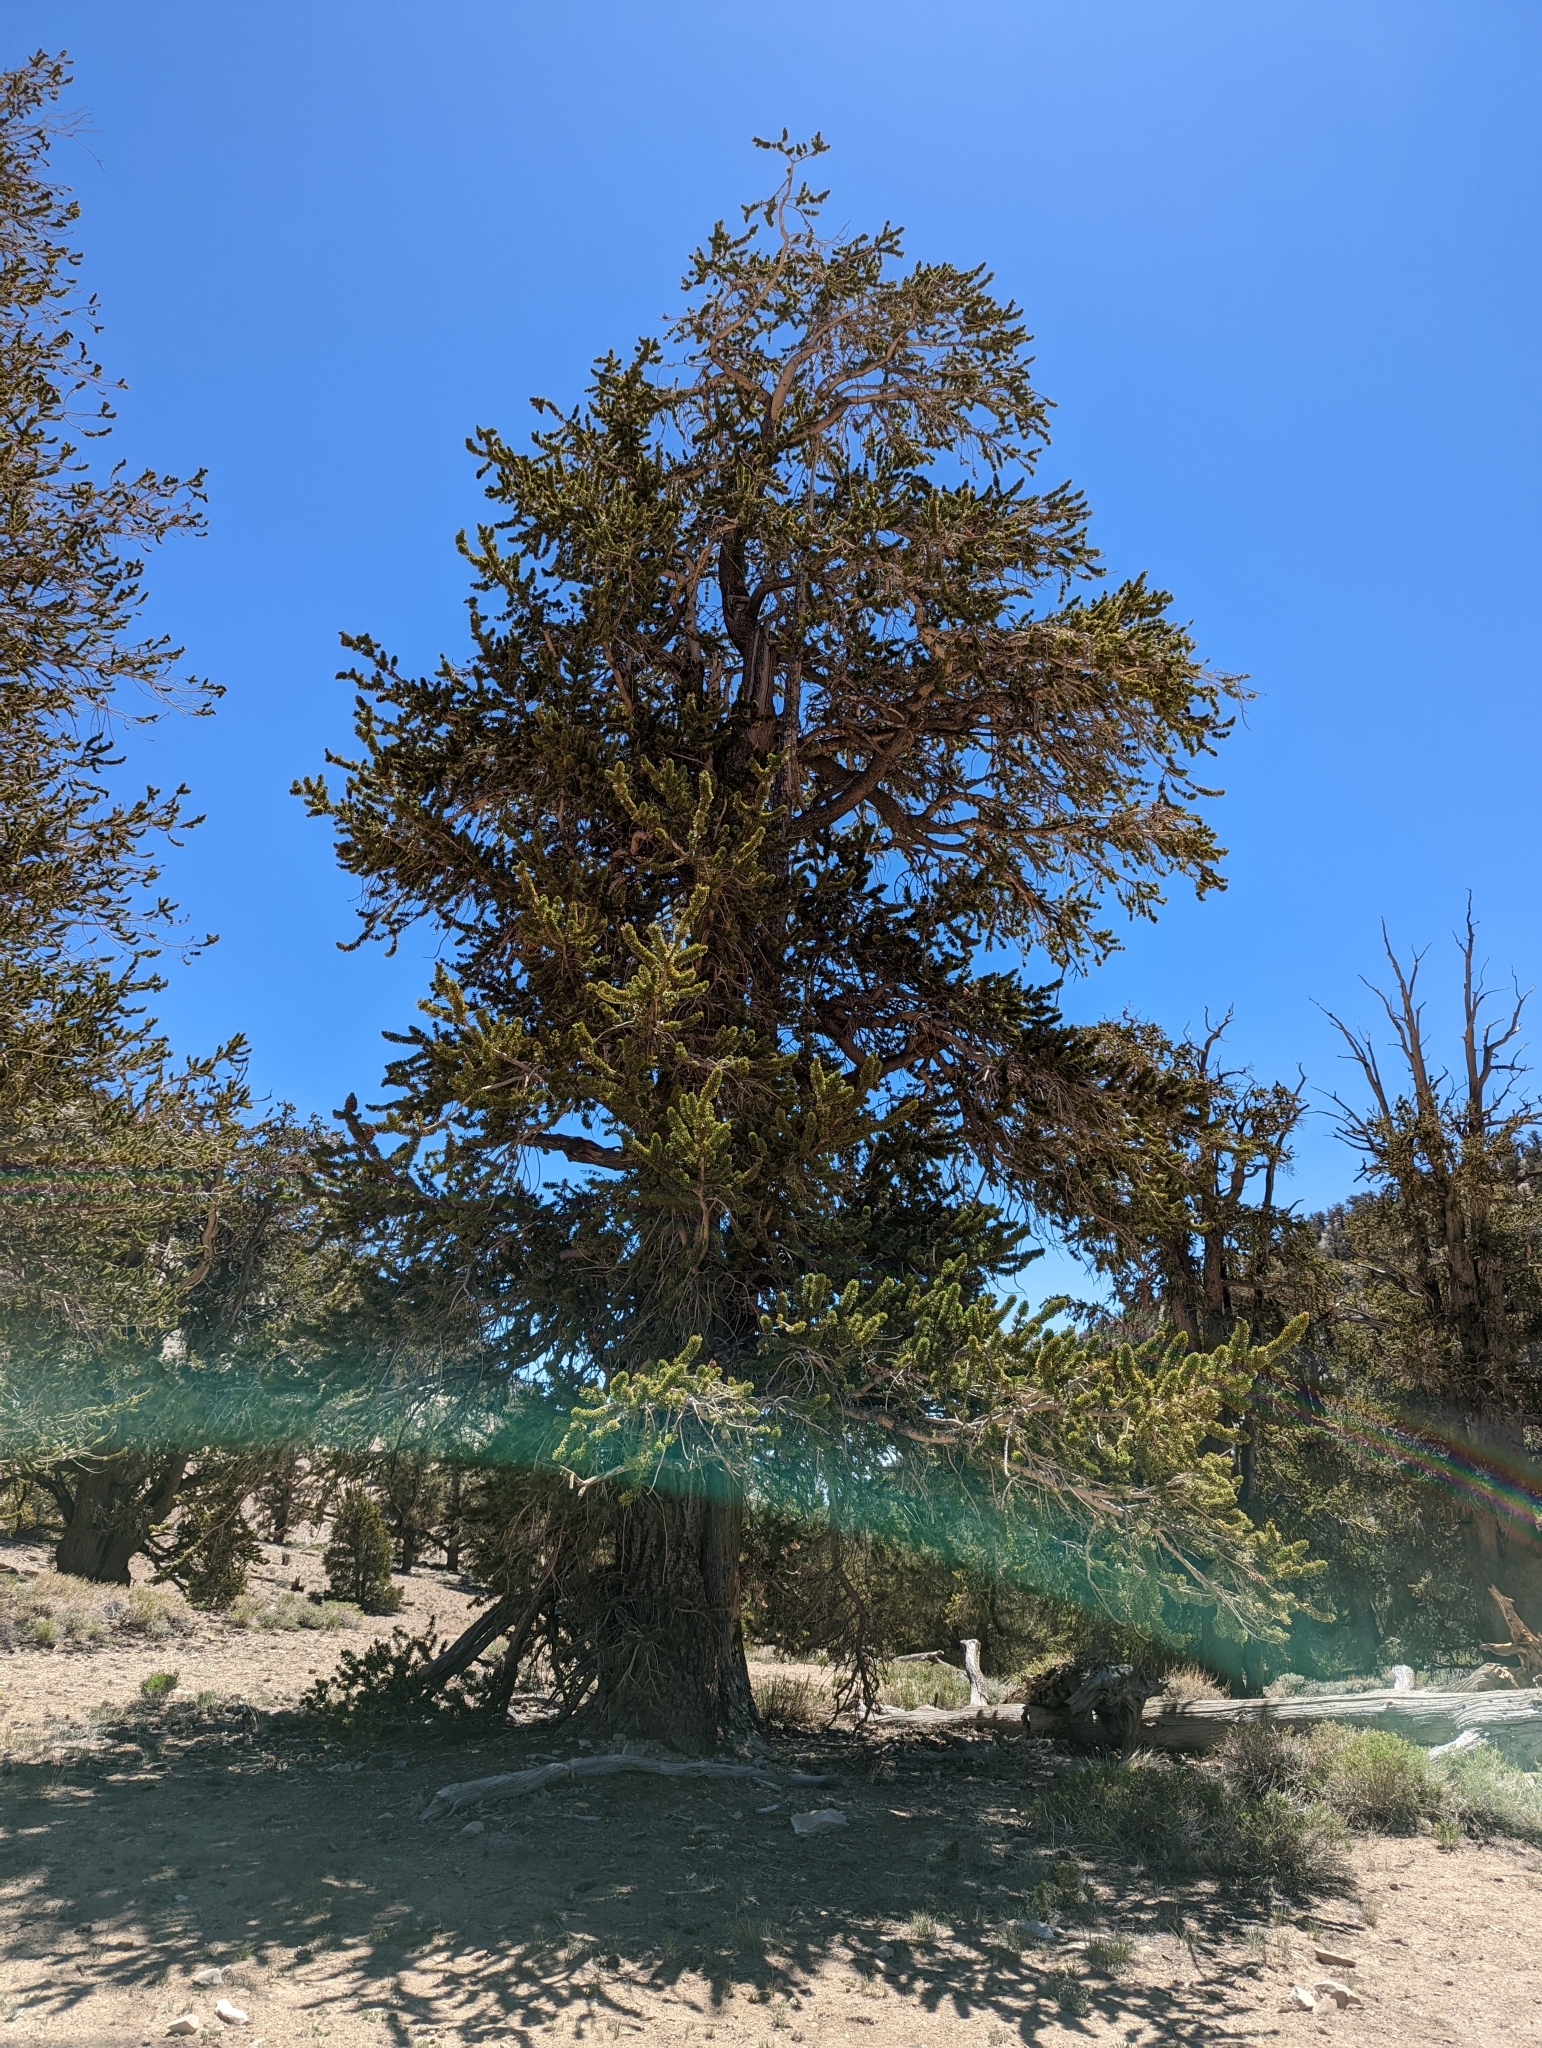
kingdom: Plantae
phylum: Tracheophyta
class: Pinopsida
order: Pinales
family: Pinaceae
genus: Pinus
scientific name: Pinus longaeva
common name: Intermountain bristlecone pine
